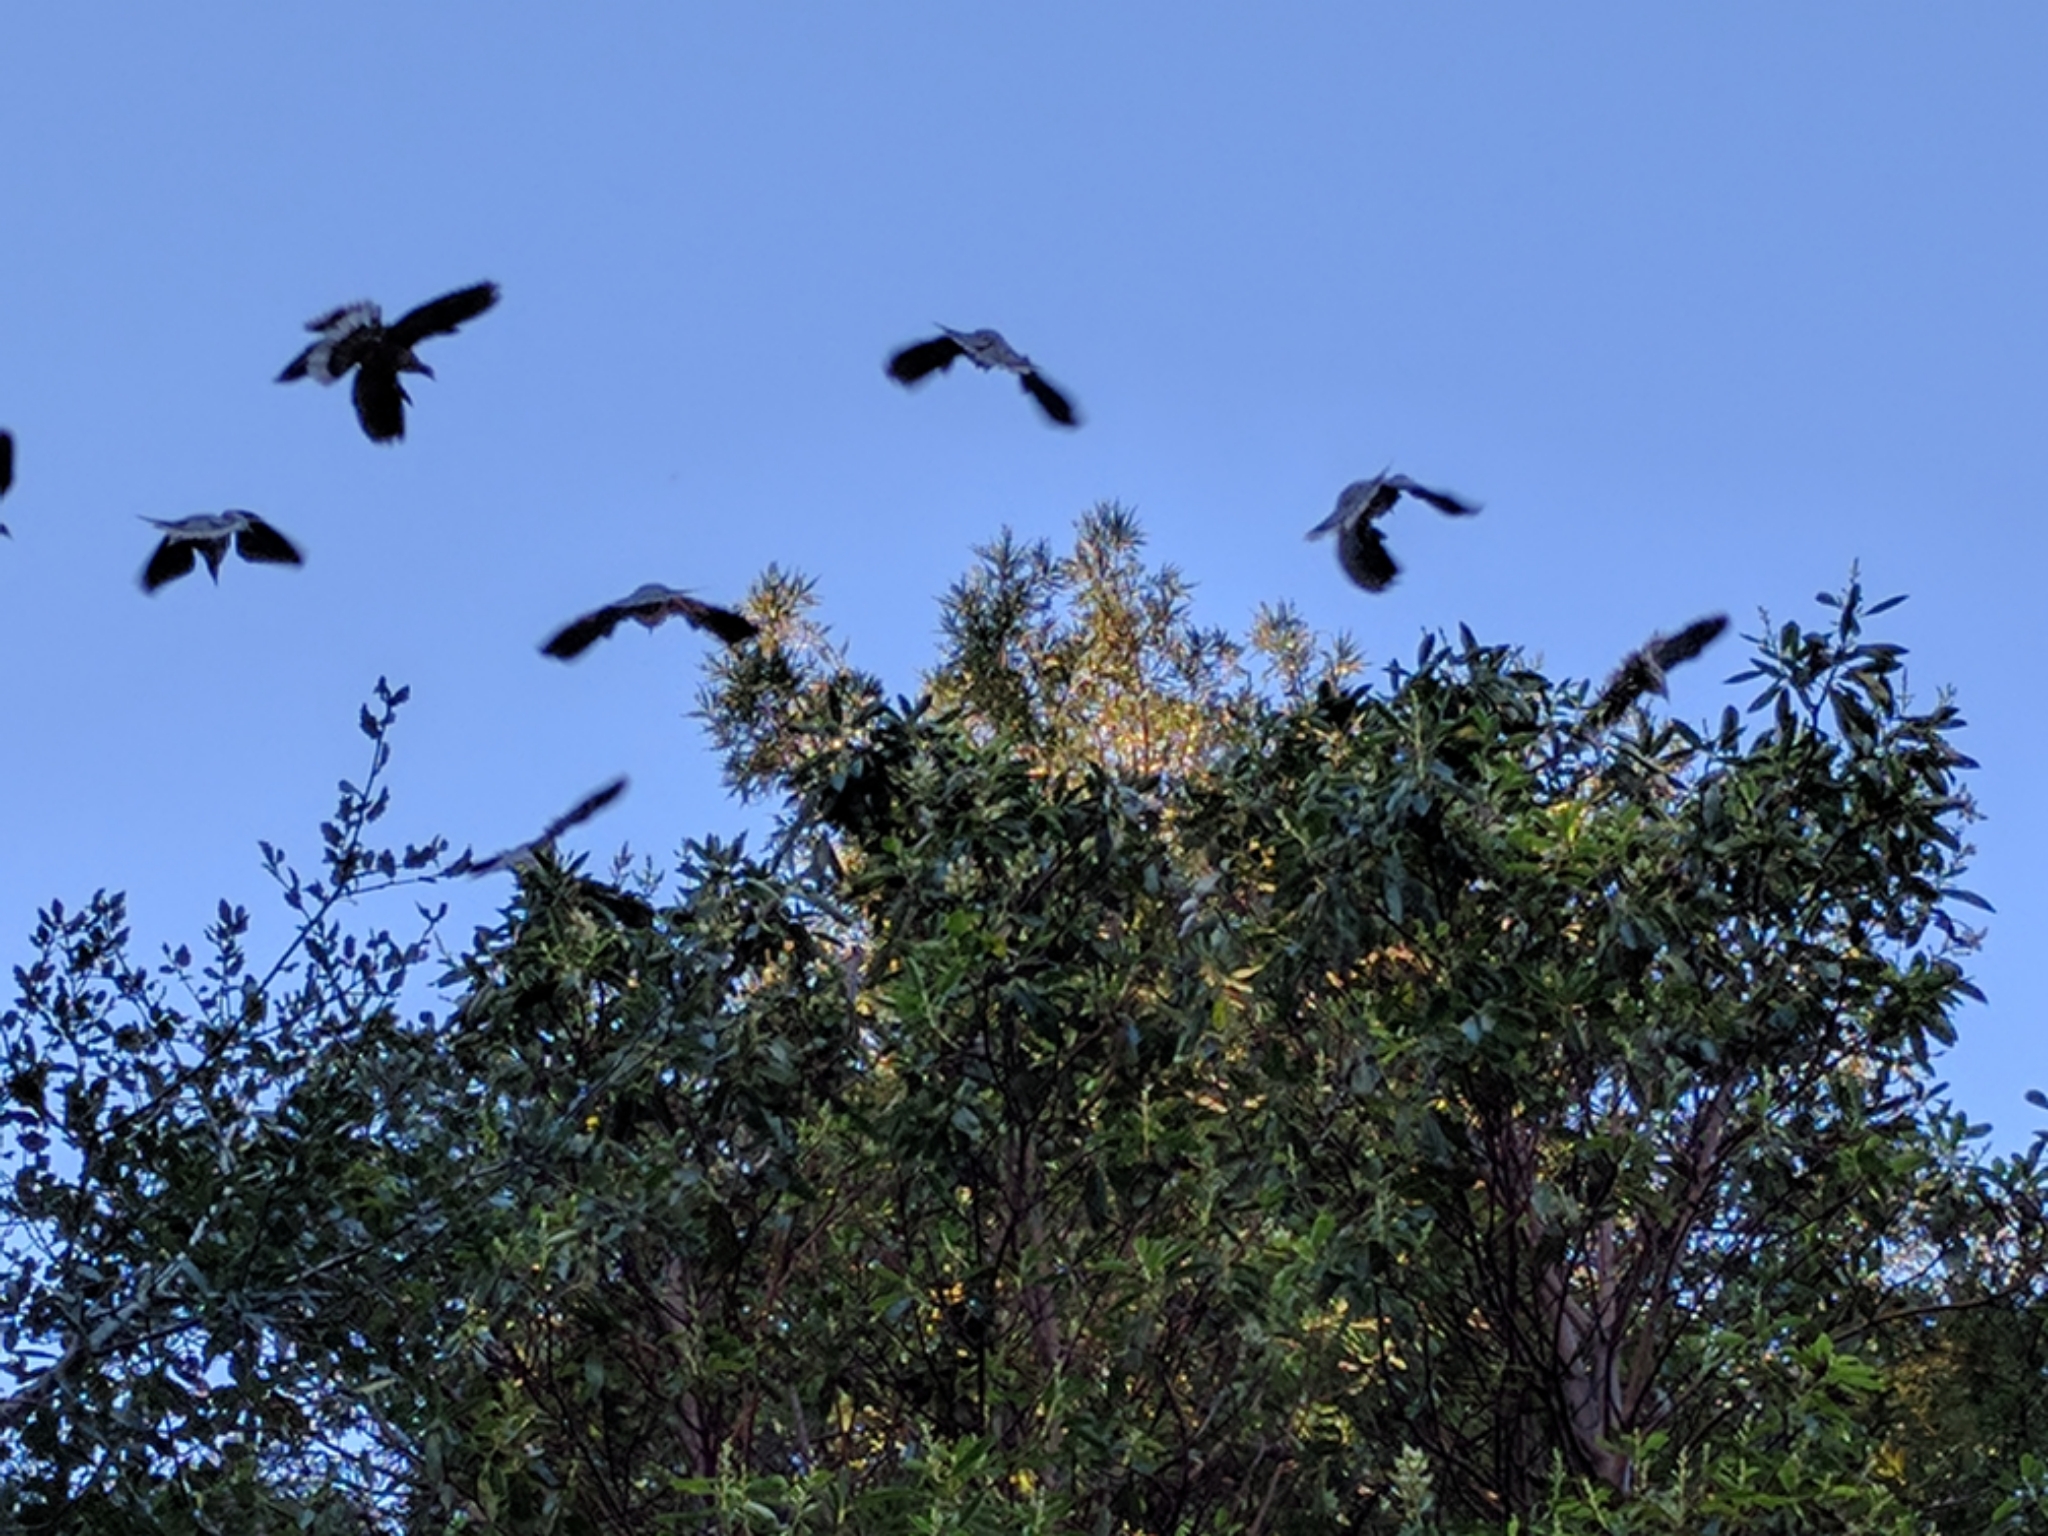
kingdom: Animalia
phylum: Chordata
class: Aves
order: Columbiformes
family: Columbidae
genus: Patagioenas
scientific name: Patagioenas fasciata
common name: Band-tailed pigeon
